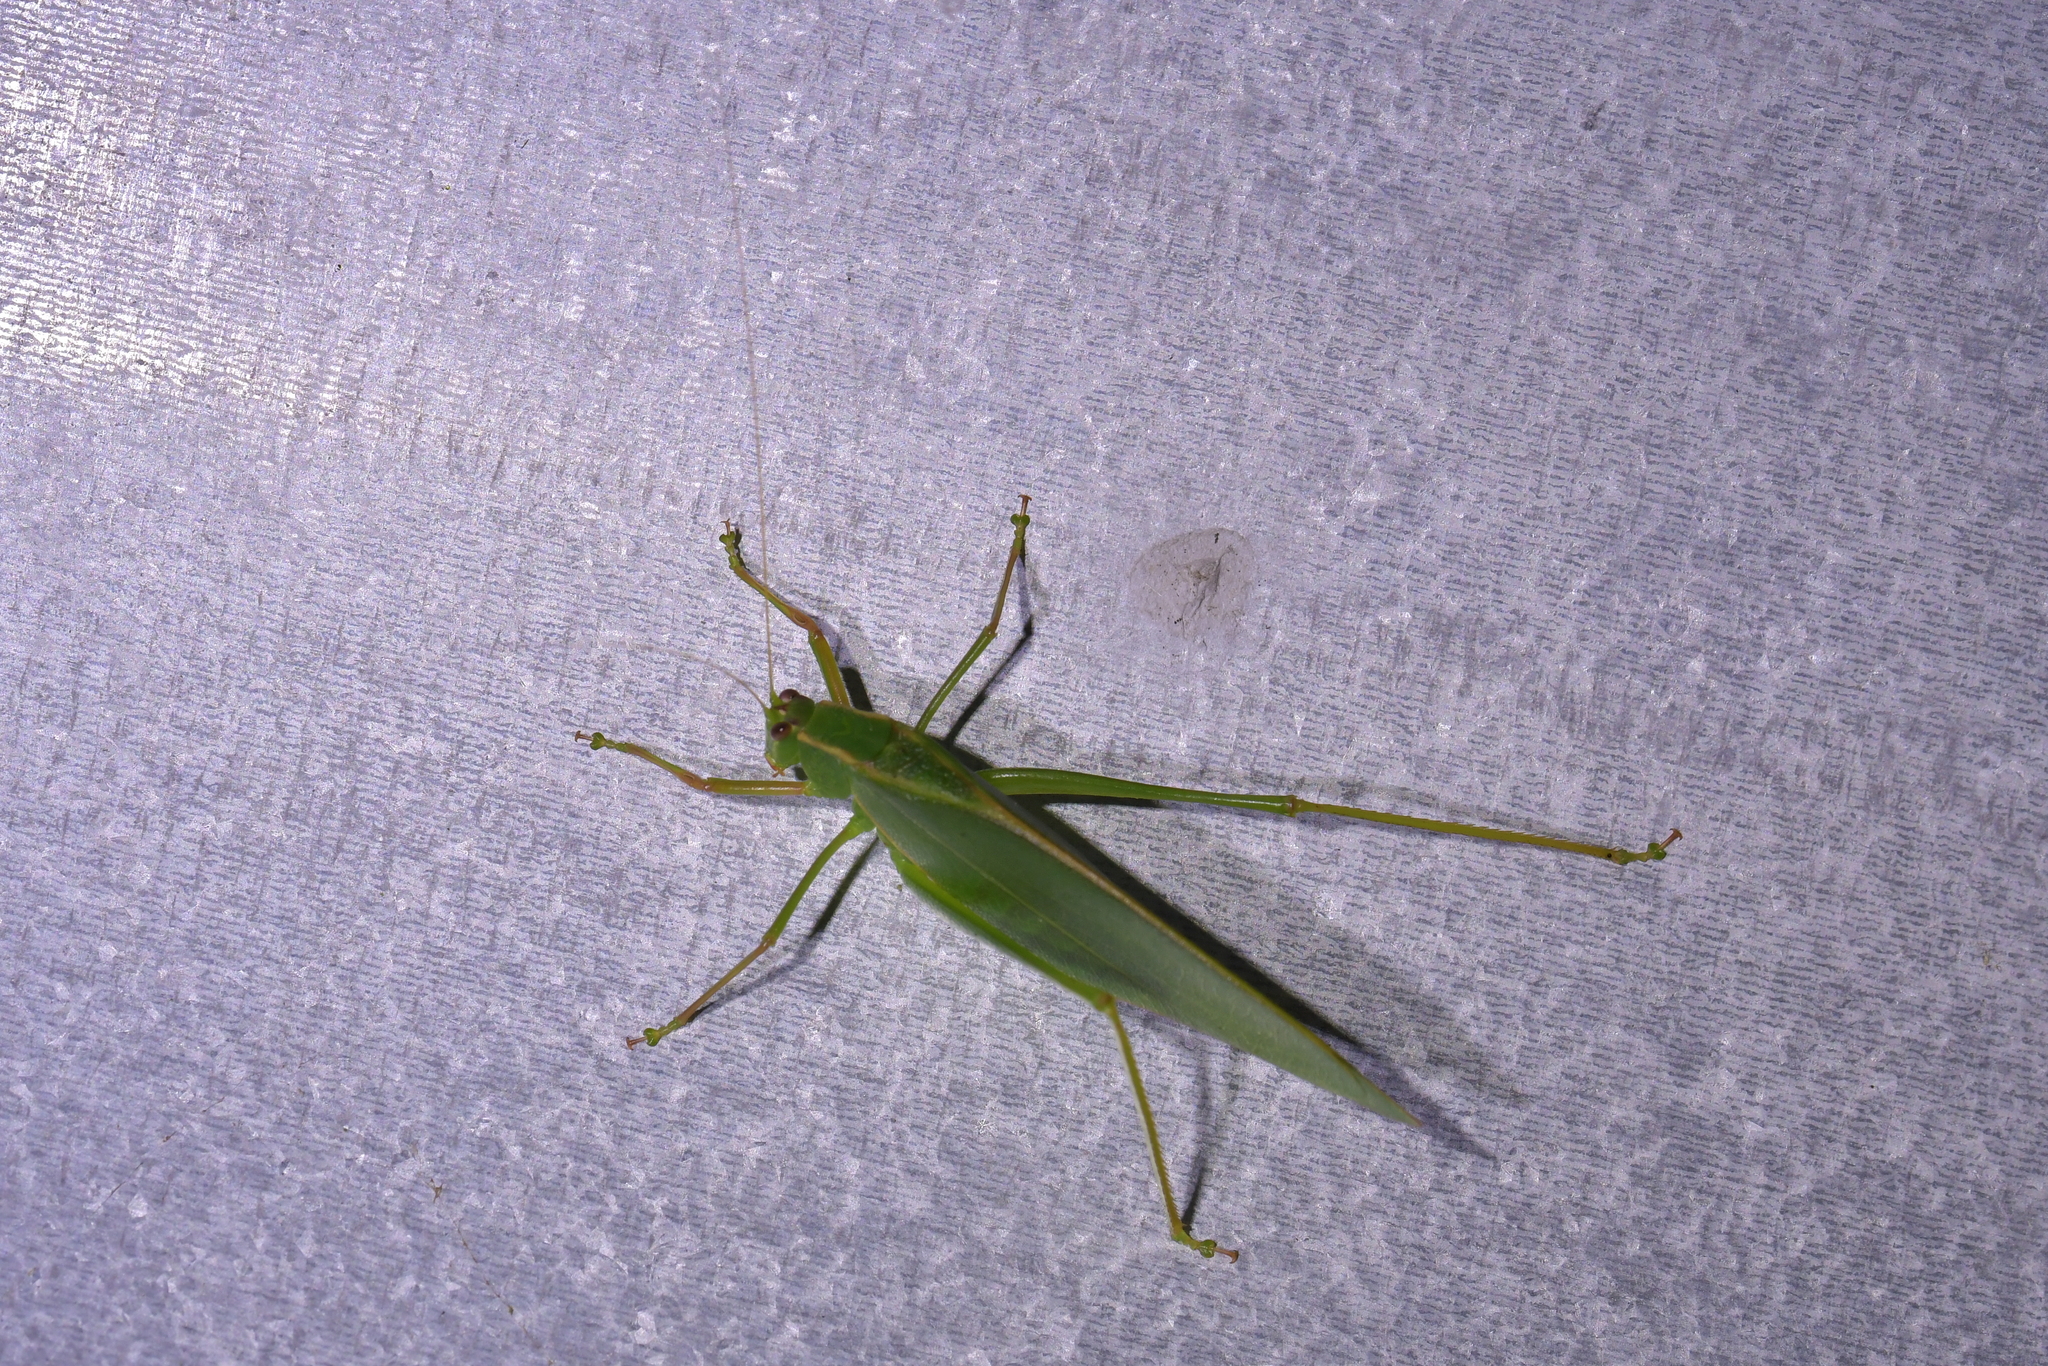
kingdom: Animalia
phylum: Arthropoda
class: Insecta
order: Orthoptera
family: Tettigoniidae
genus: Caedicia
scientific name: Caedicia simplex
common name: Common garden katydid
